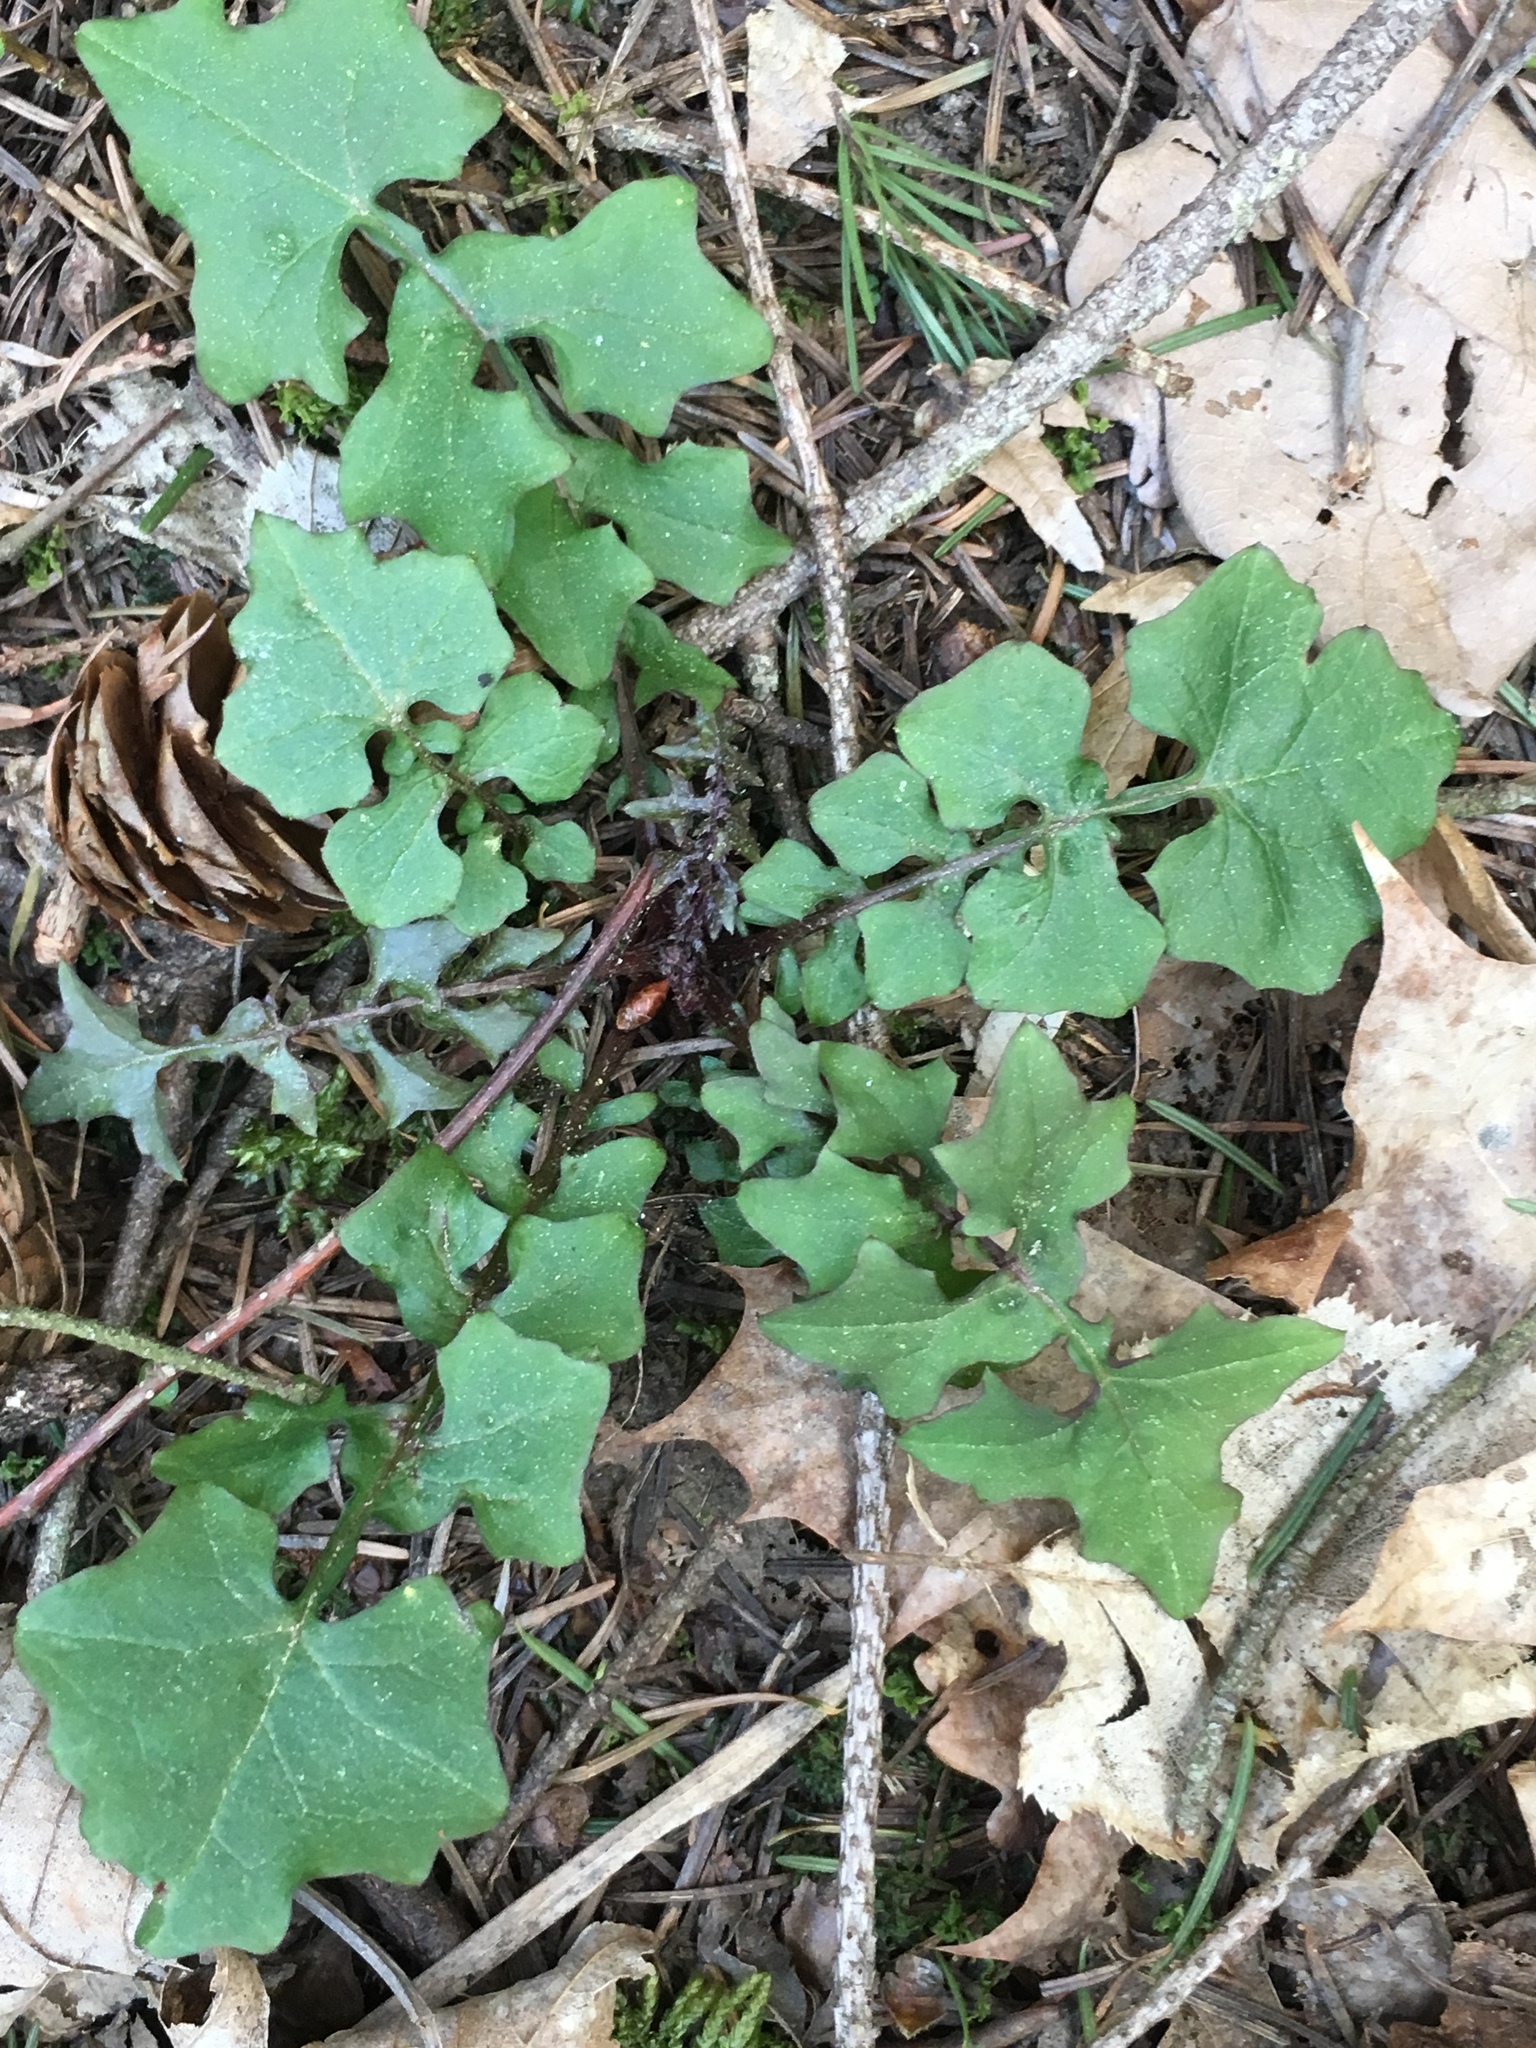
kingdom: Plantae
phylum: Tracheophyta
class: Magnoliopsida
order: Asterales
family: Asteraceae
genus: Mycelis
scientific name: Mycelis muralis
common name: Wall lettuce
